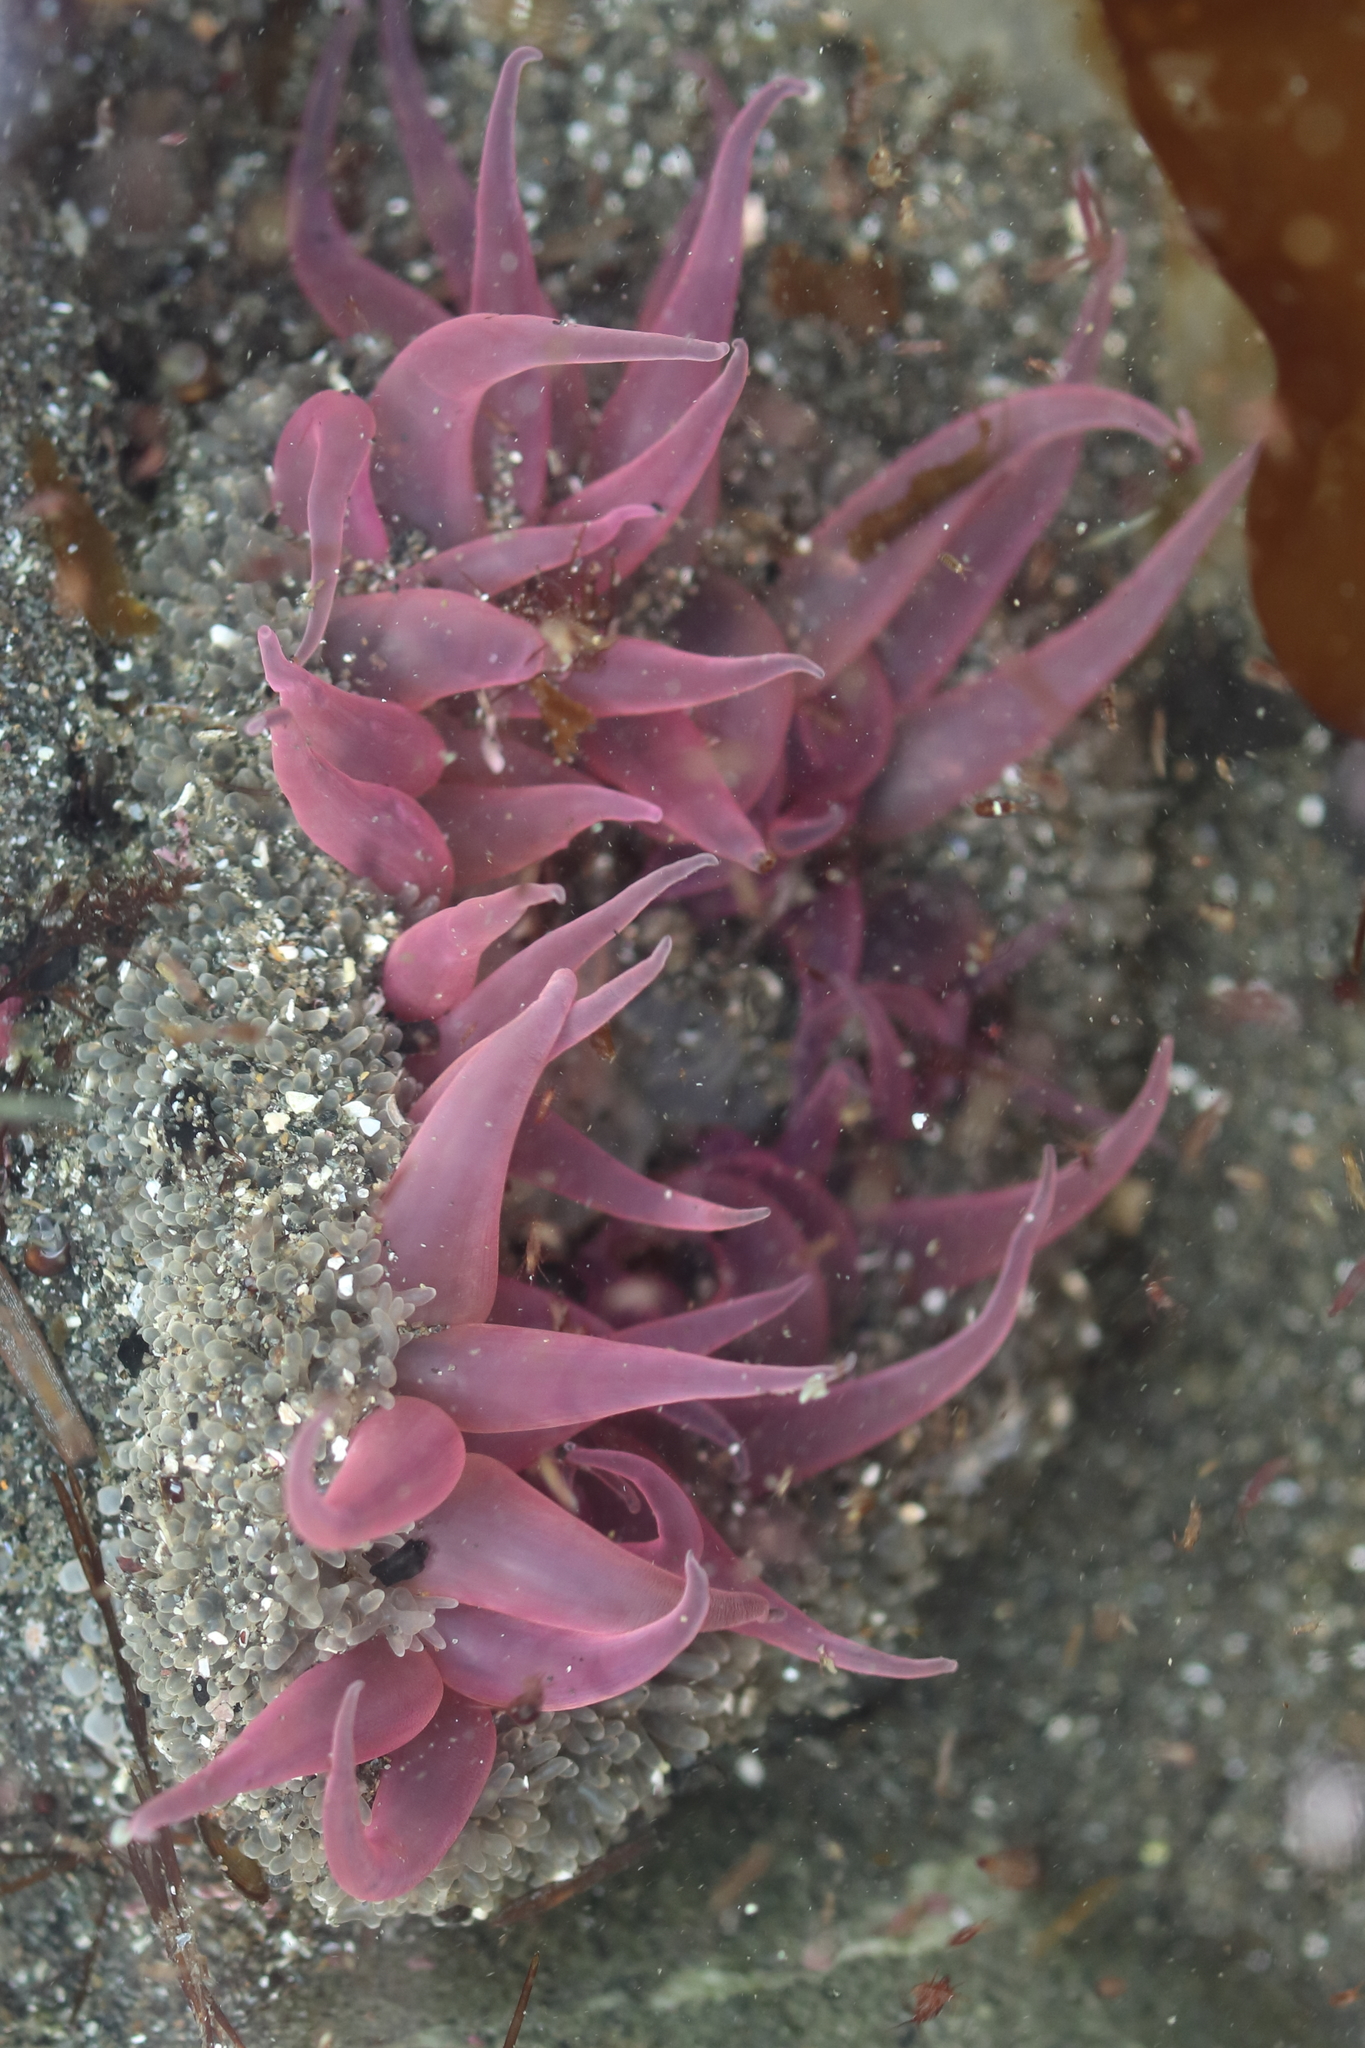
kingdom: Animalia
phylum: Cnidaria
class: Anthozoa
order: Actiniaria
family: Actiniidae
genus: Anthopleura
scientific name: Anthopleura artemisia
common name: Buried sea anemone
